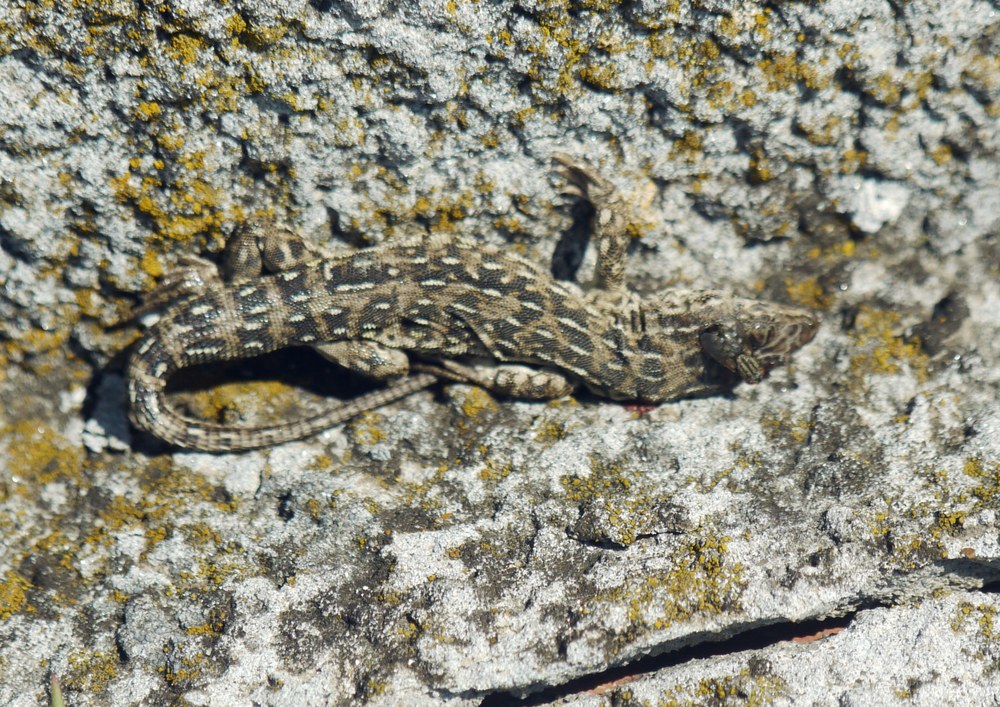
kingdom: Animalia
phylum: Chordata
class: Squamata
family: Lacertidae
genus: Eremias
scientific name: Eremias arguta
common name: Racerunner
